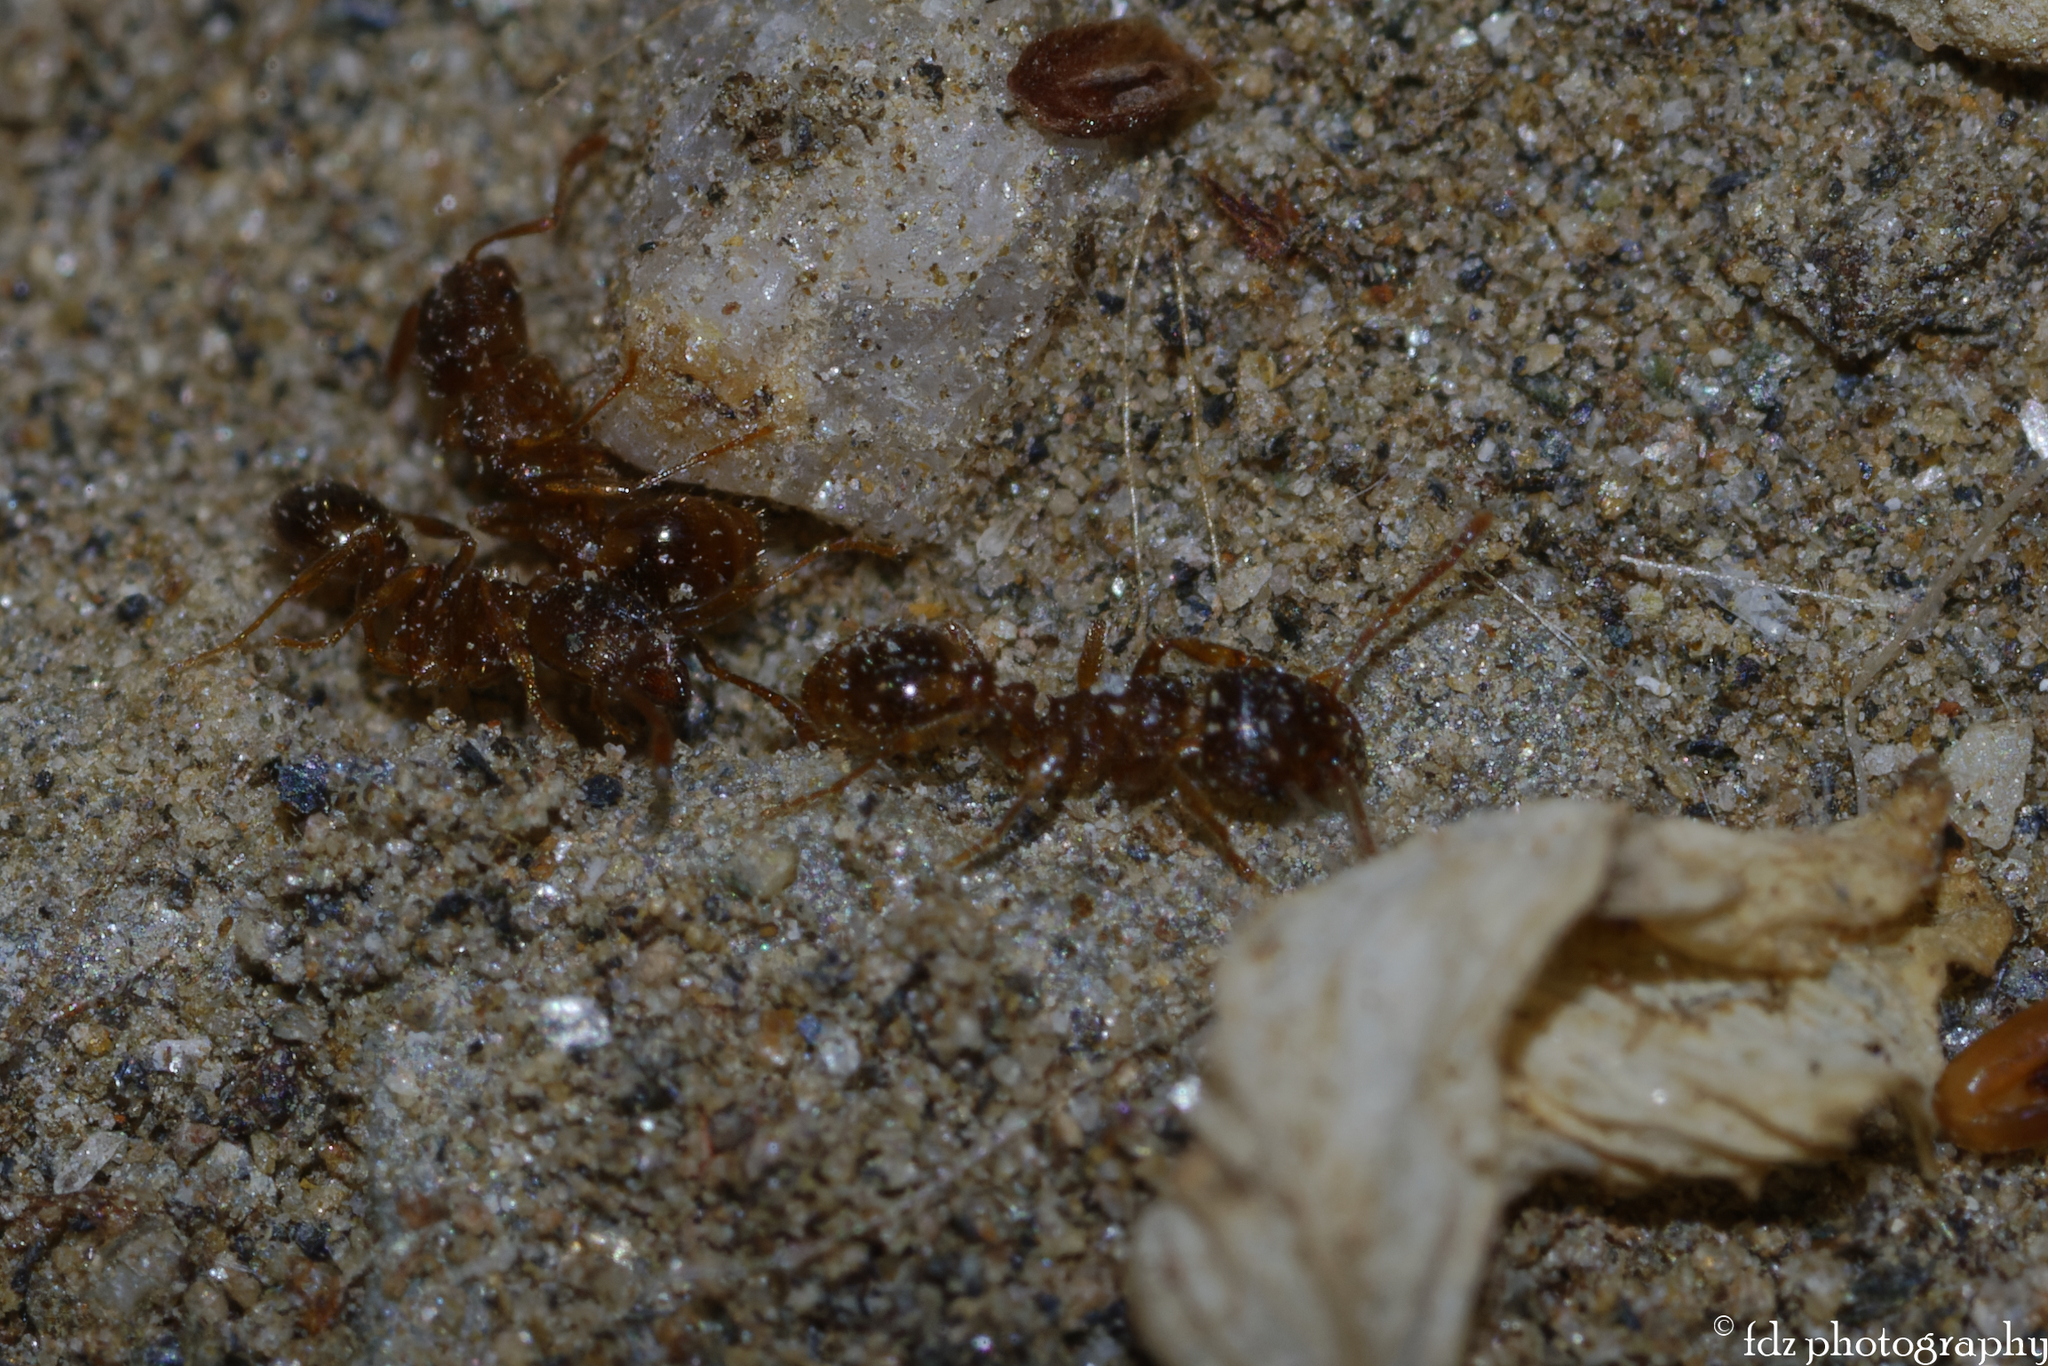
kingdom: Animalia
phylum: Arthropoda
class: Insecta
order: Hymenoptera
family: Formicidae
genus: Pheidole
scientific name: Pheidole pallidula
